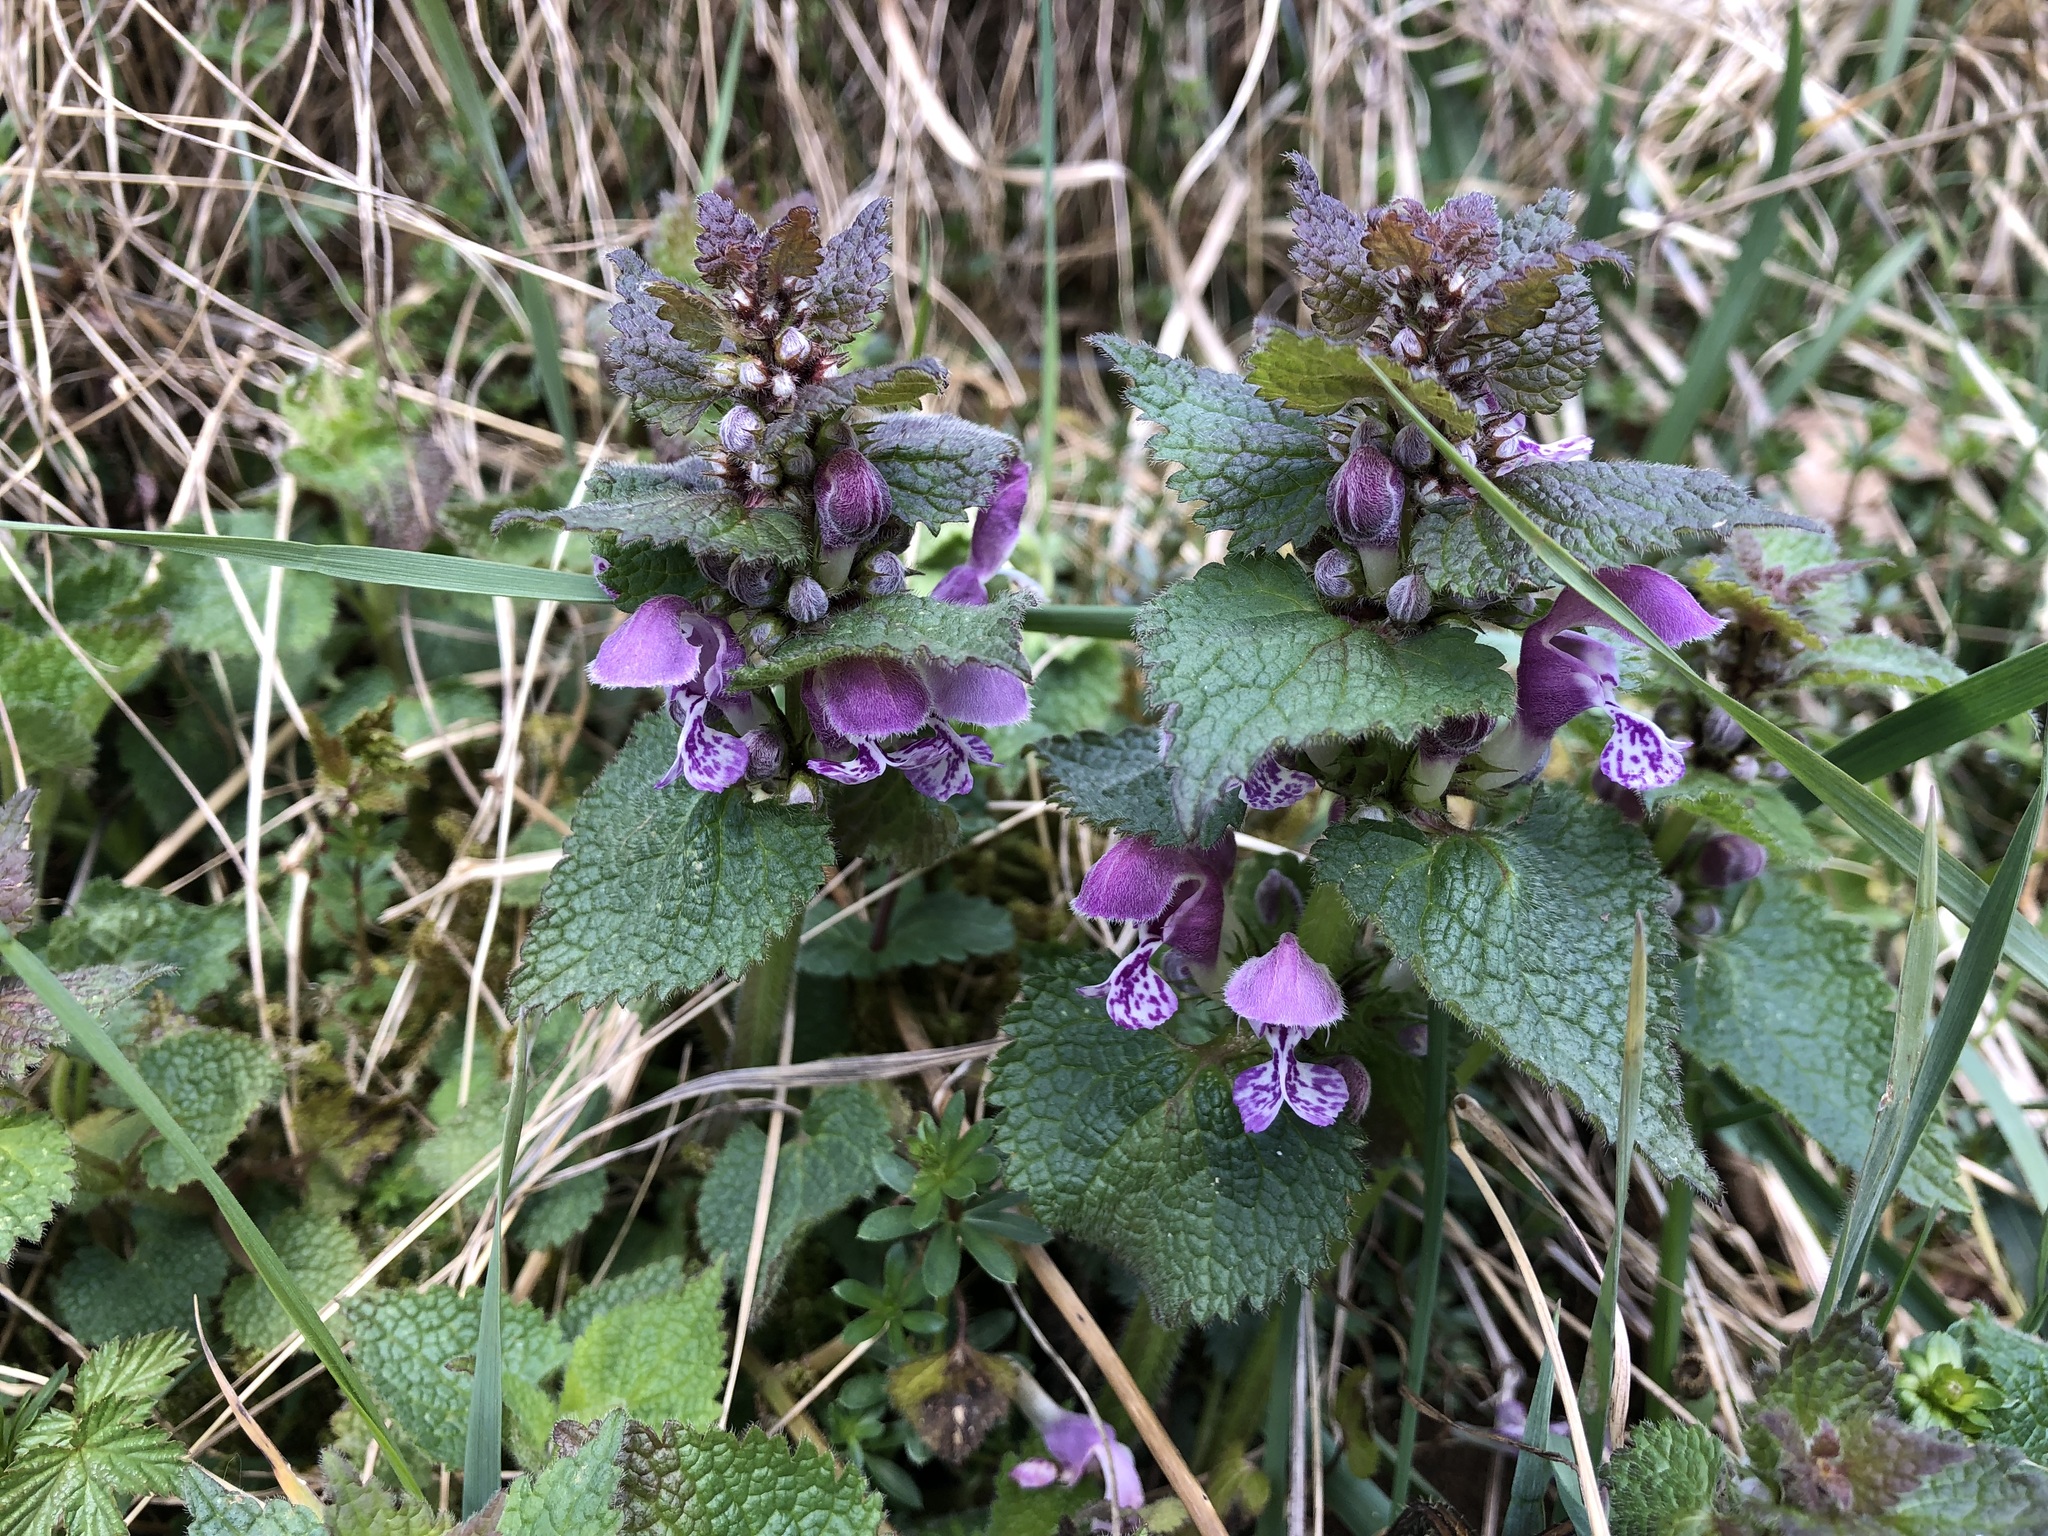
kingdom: Plantae
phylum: Tracheophyta
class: Magnoliopsida
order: Lamiales
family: Lamiaceae
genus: Lamium
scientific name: Lamium maculatum
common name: Spotted dead-nettle
